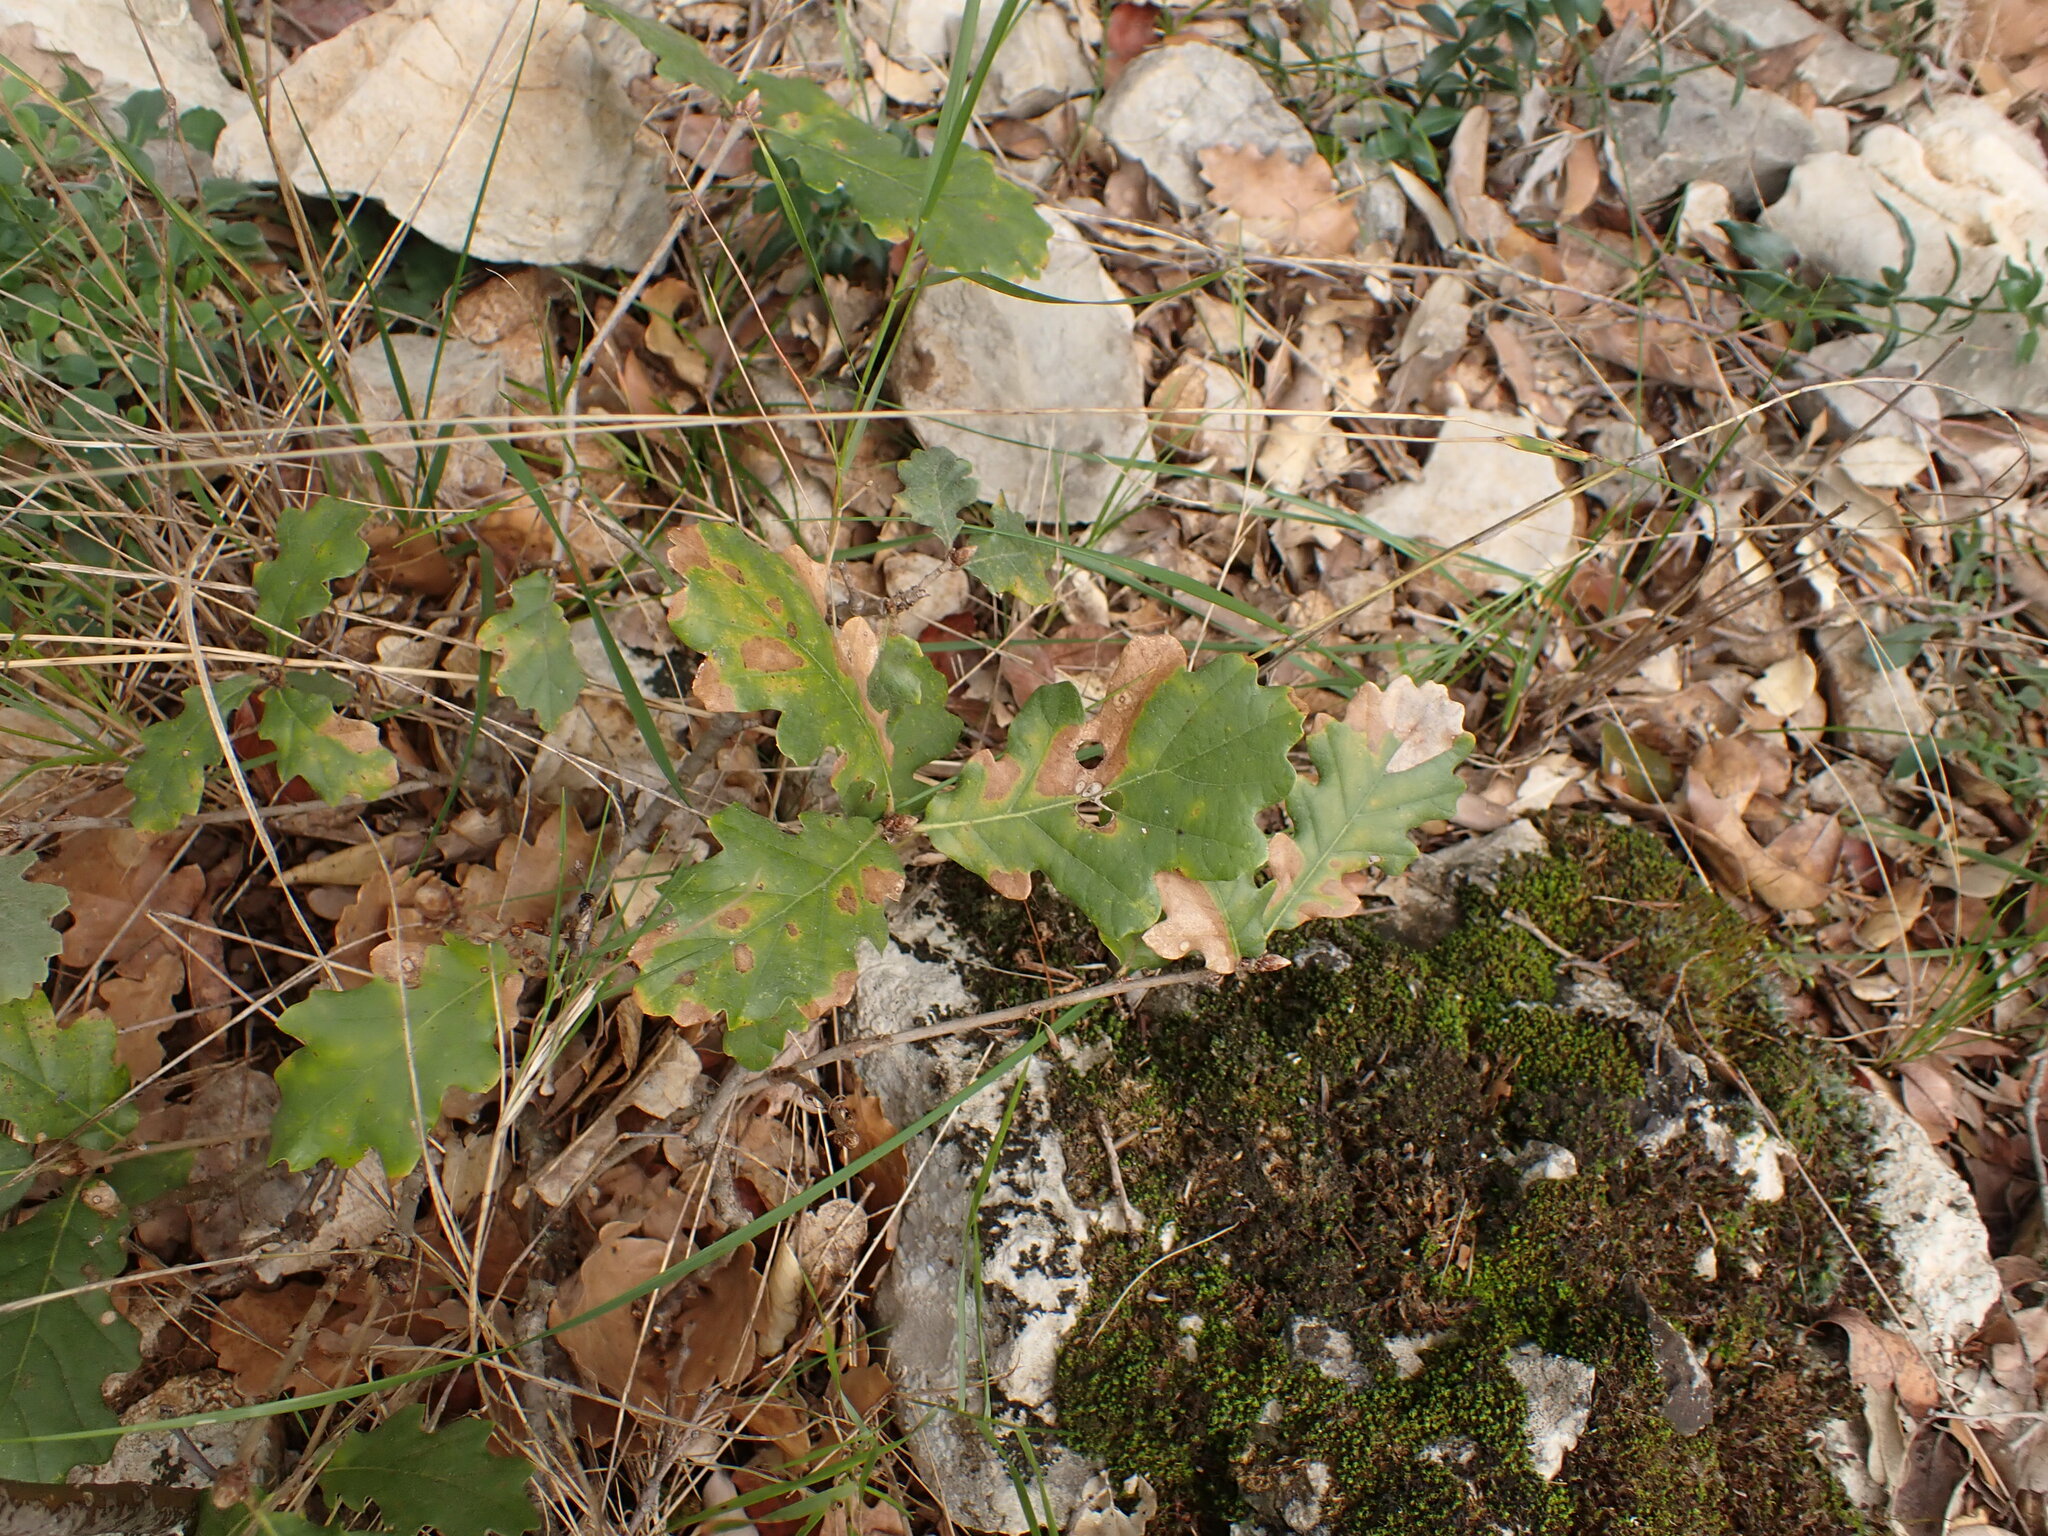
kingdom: Plantae
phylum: Tracheophyta
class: Magnoliopsida
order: Fagales
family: Fagaceae
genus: Quercus
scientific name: Quercus pubescens
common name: Downy oak
